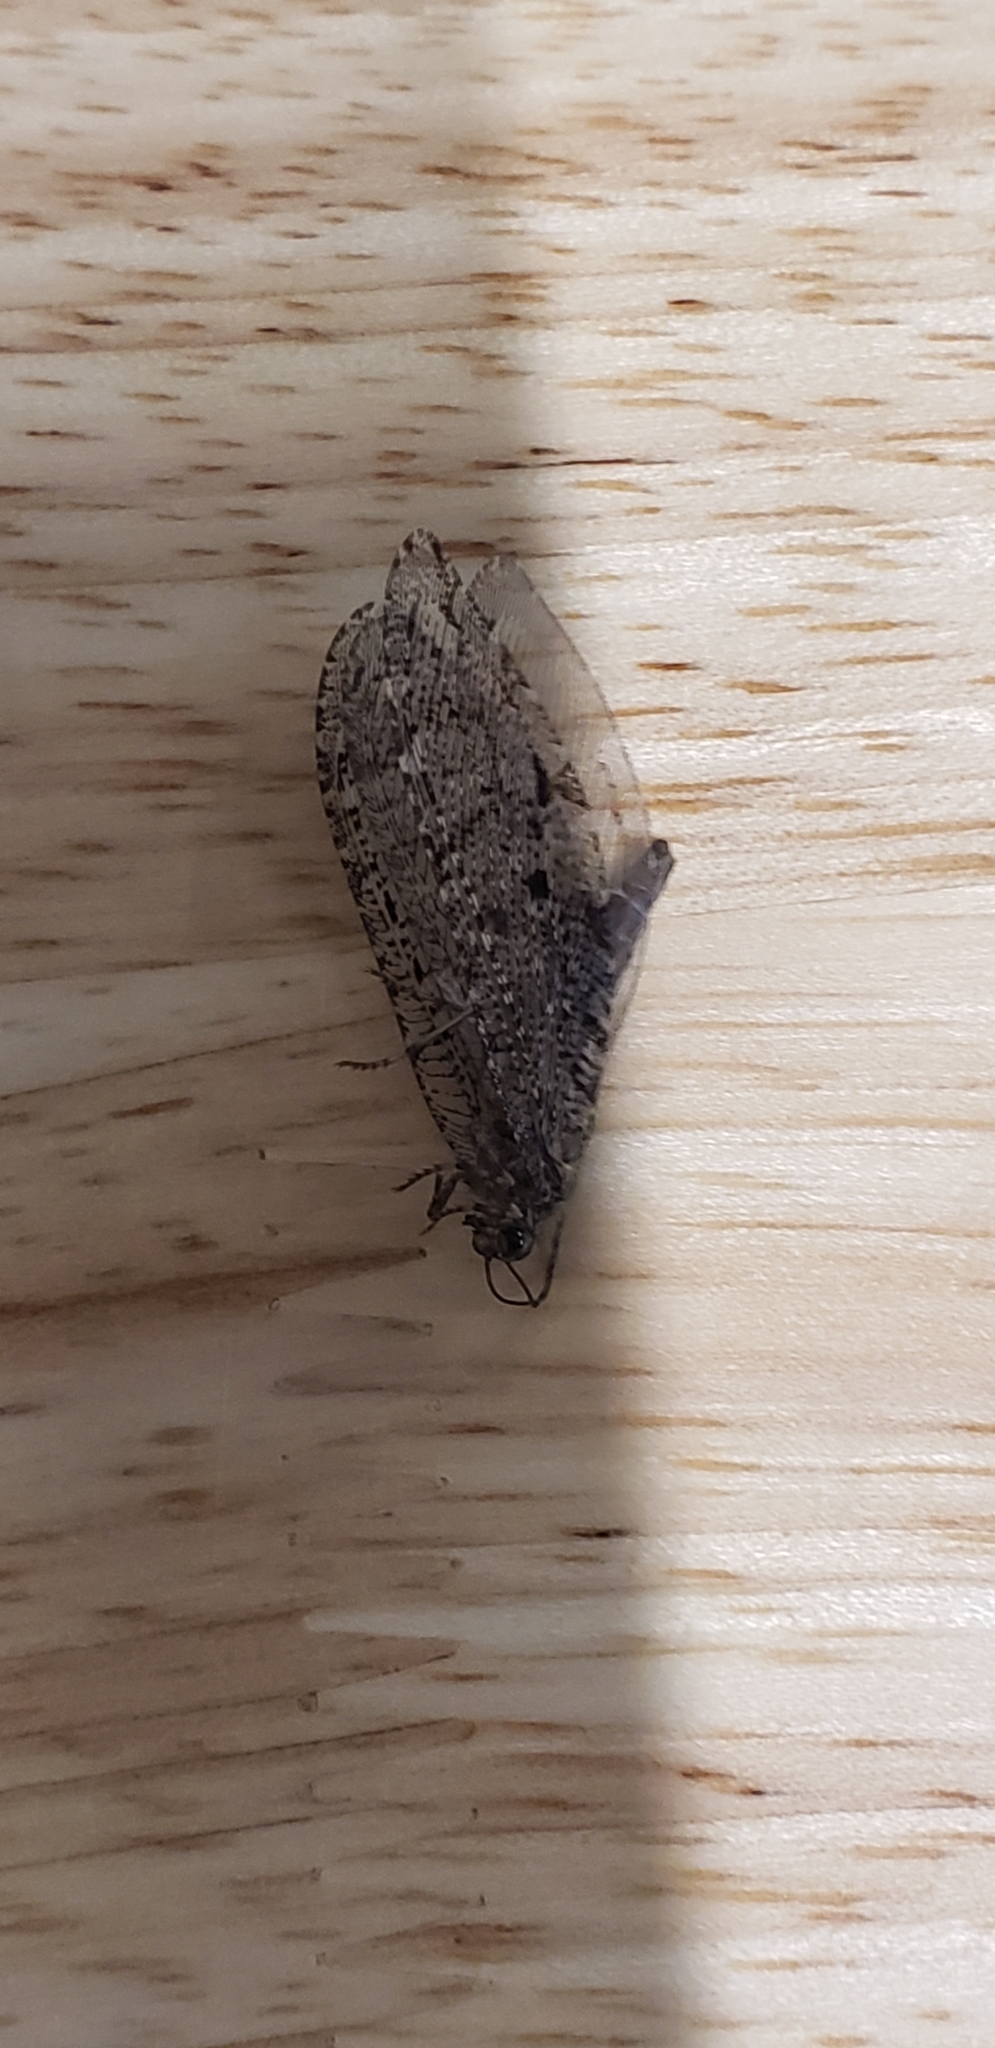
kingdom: Animalia
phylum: Arthropoda
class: Insecta
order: Neuroptera
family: Ithonidae
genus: Polystoechotes
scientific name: Polystoechotes punctata
